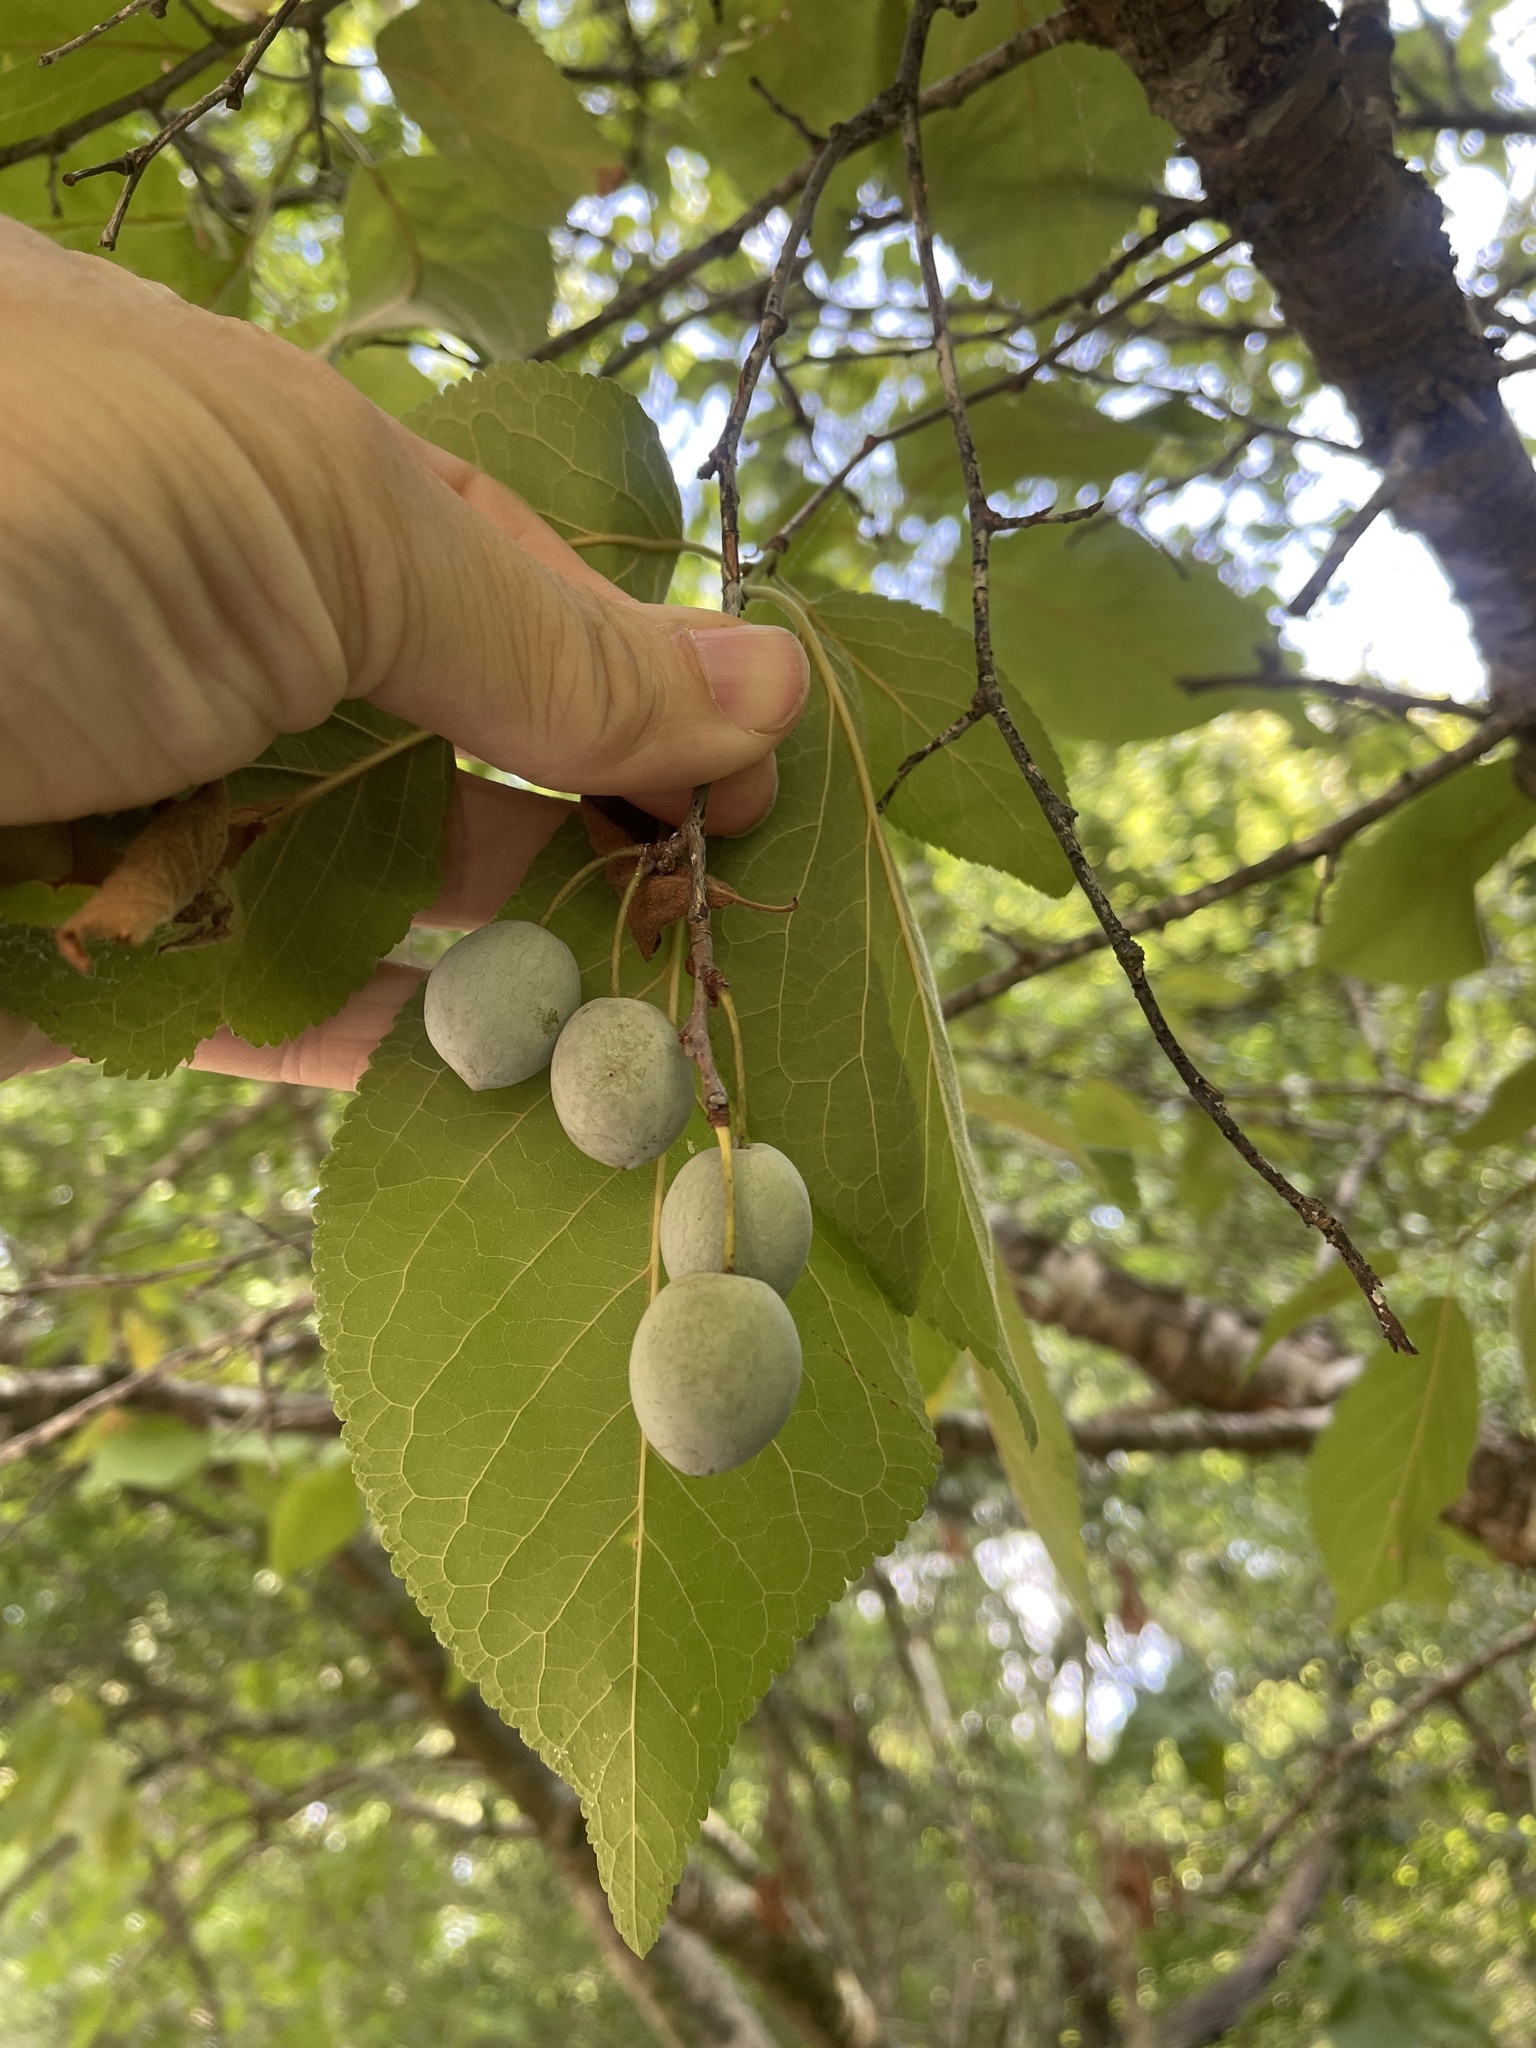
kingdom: Plantae
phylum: Tracheophyta
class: Magnoliopsida
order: Rosales
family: Rosaceae
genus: Prunus
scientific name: Prunus mexicana
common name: Mexican plum
